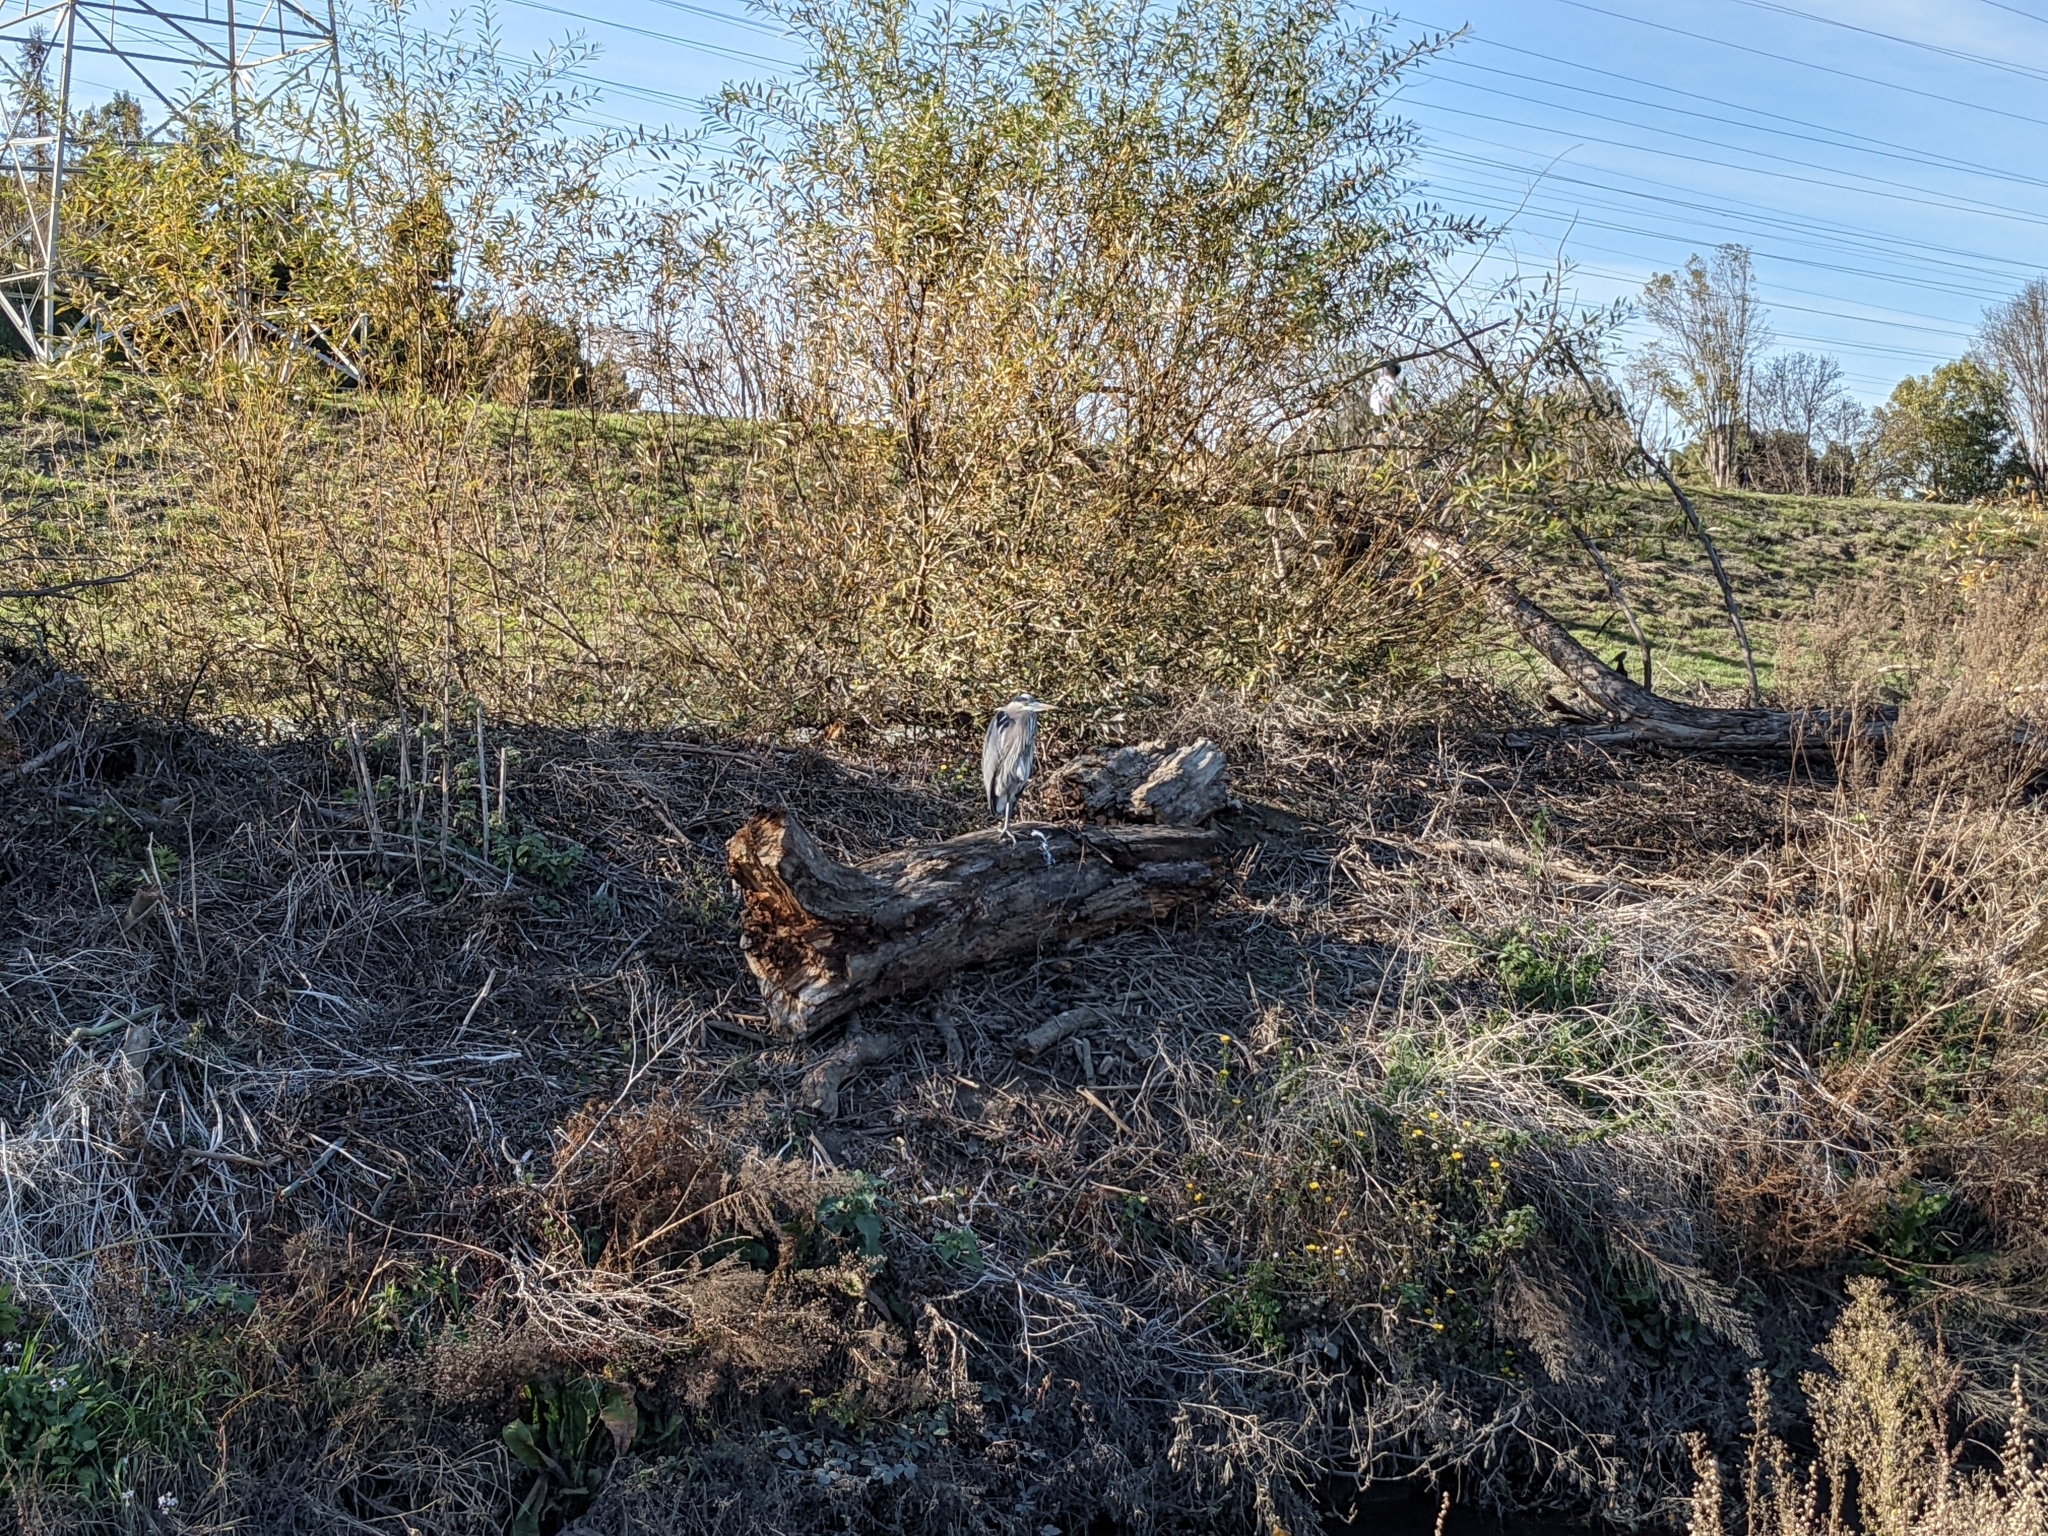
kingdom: Animalia
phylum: Chordata
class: Aves
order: Pelecaniformes
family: Ardeidae
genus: Ardea
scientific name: Ardea herodias
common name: Great blue heron
